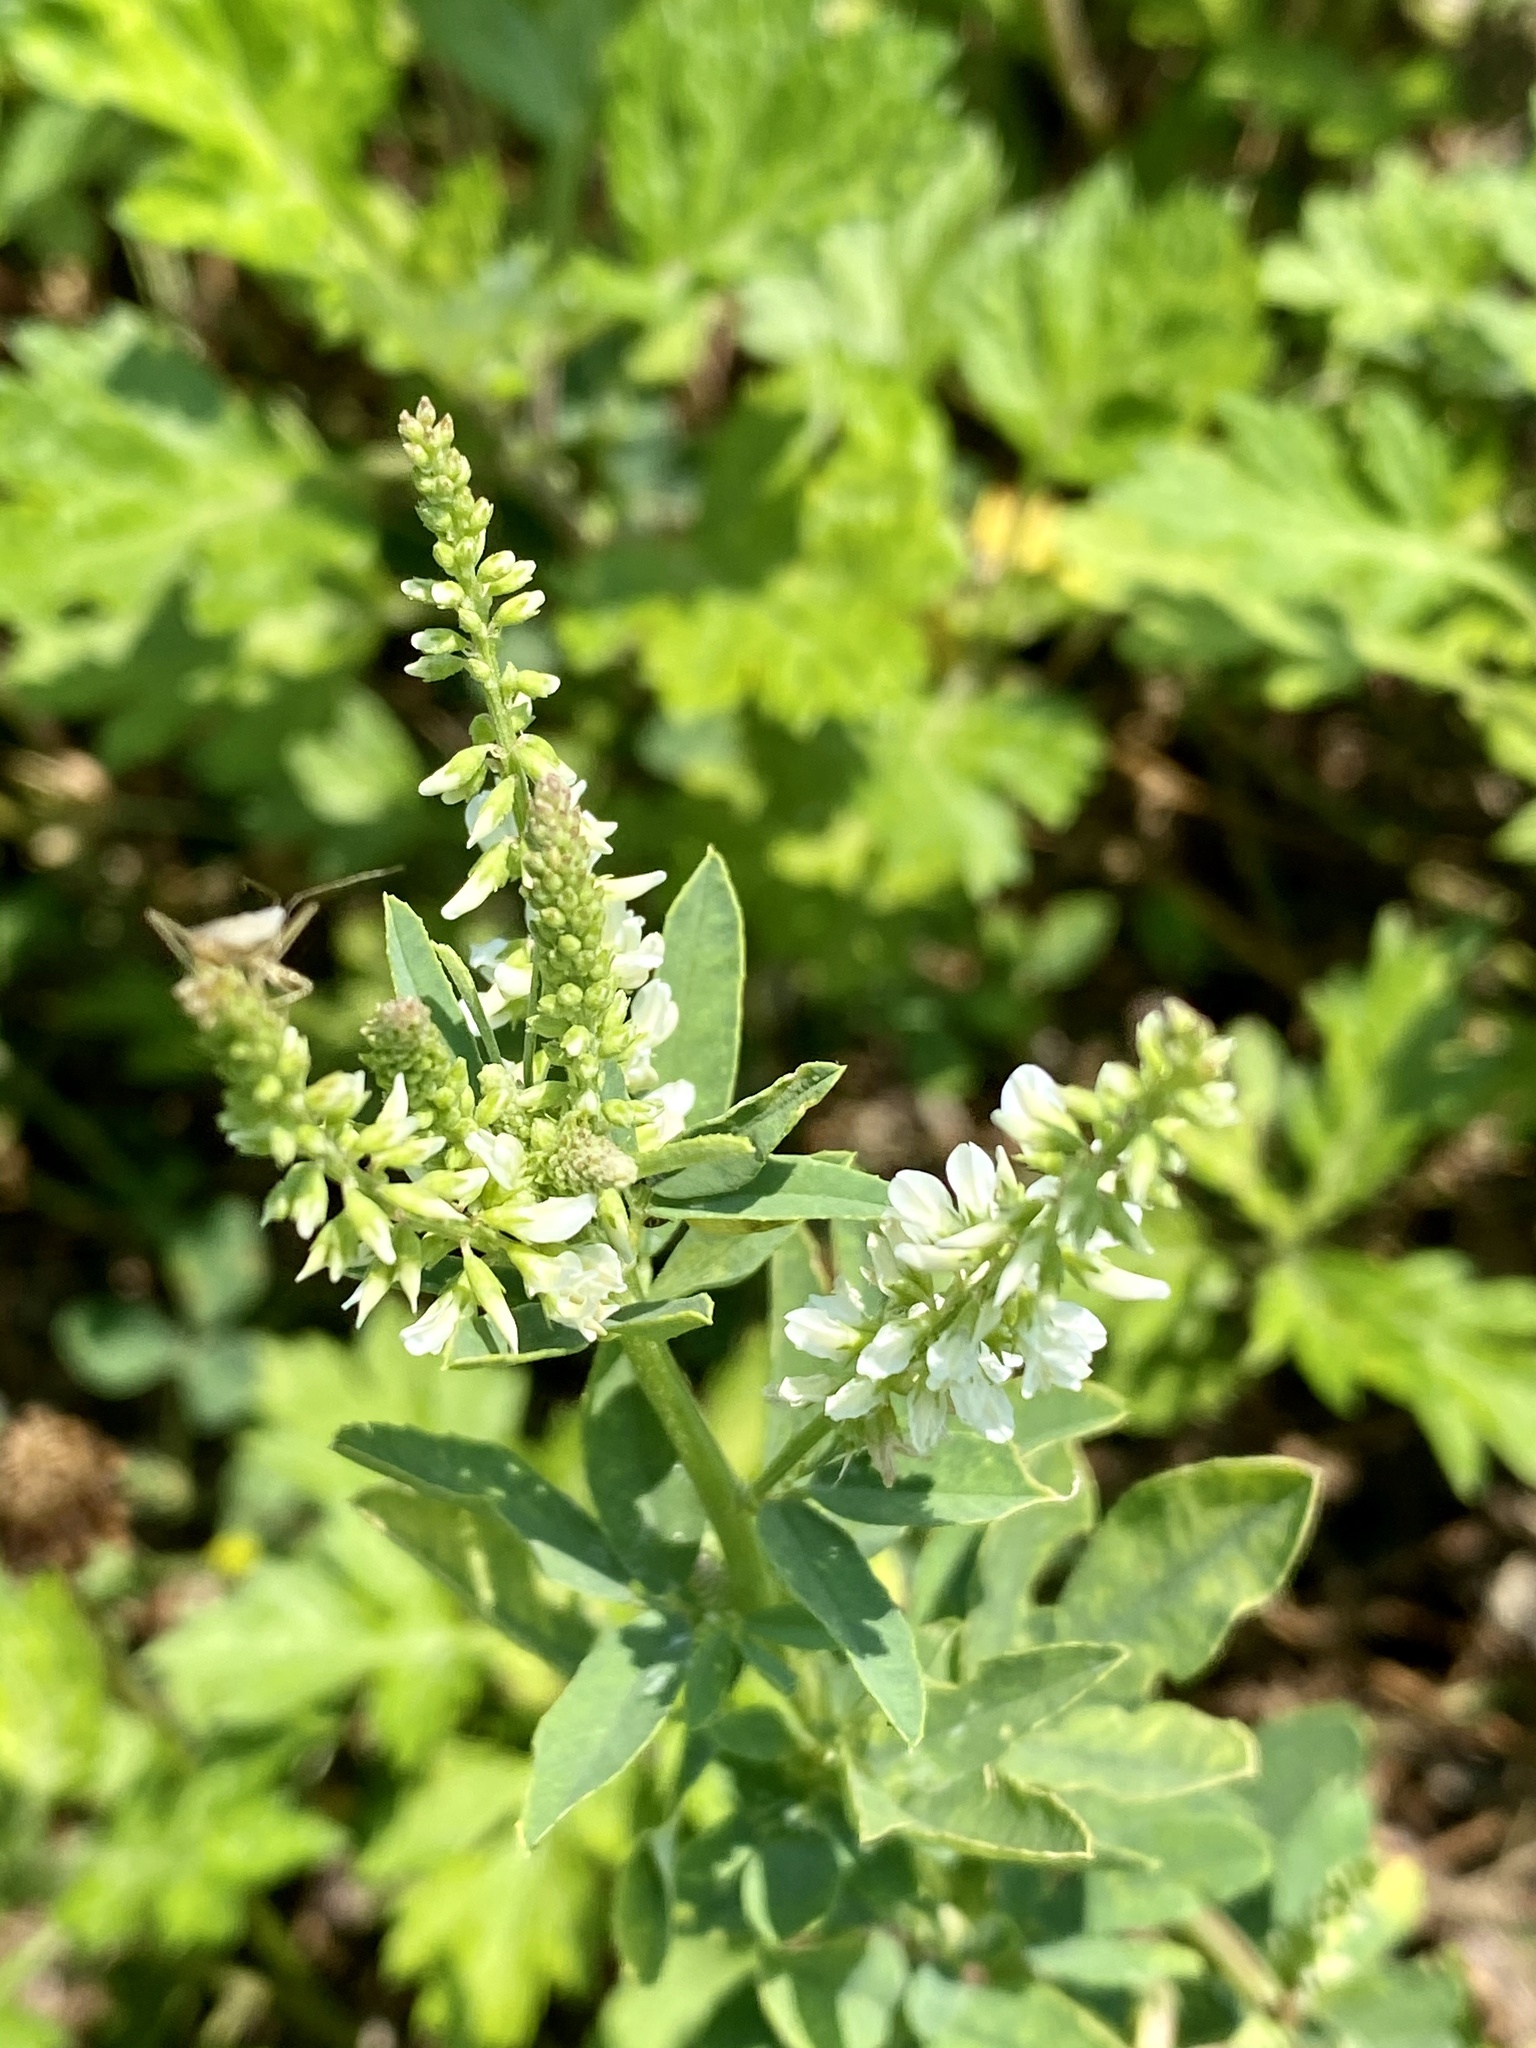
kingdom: Plantae
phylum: Tracheophyta
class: Magnoliopsida
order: Fabales
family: Fabaceae
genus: Melilotus
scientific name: Melilotus albus
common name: White melilot
